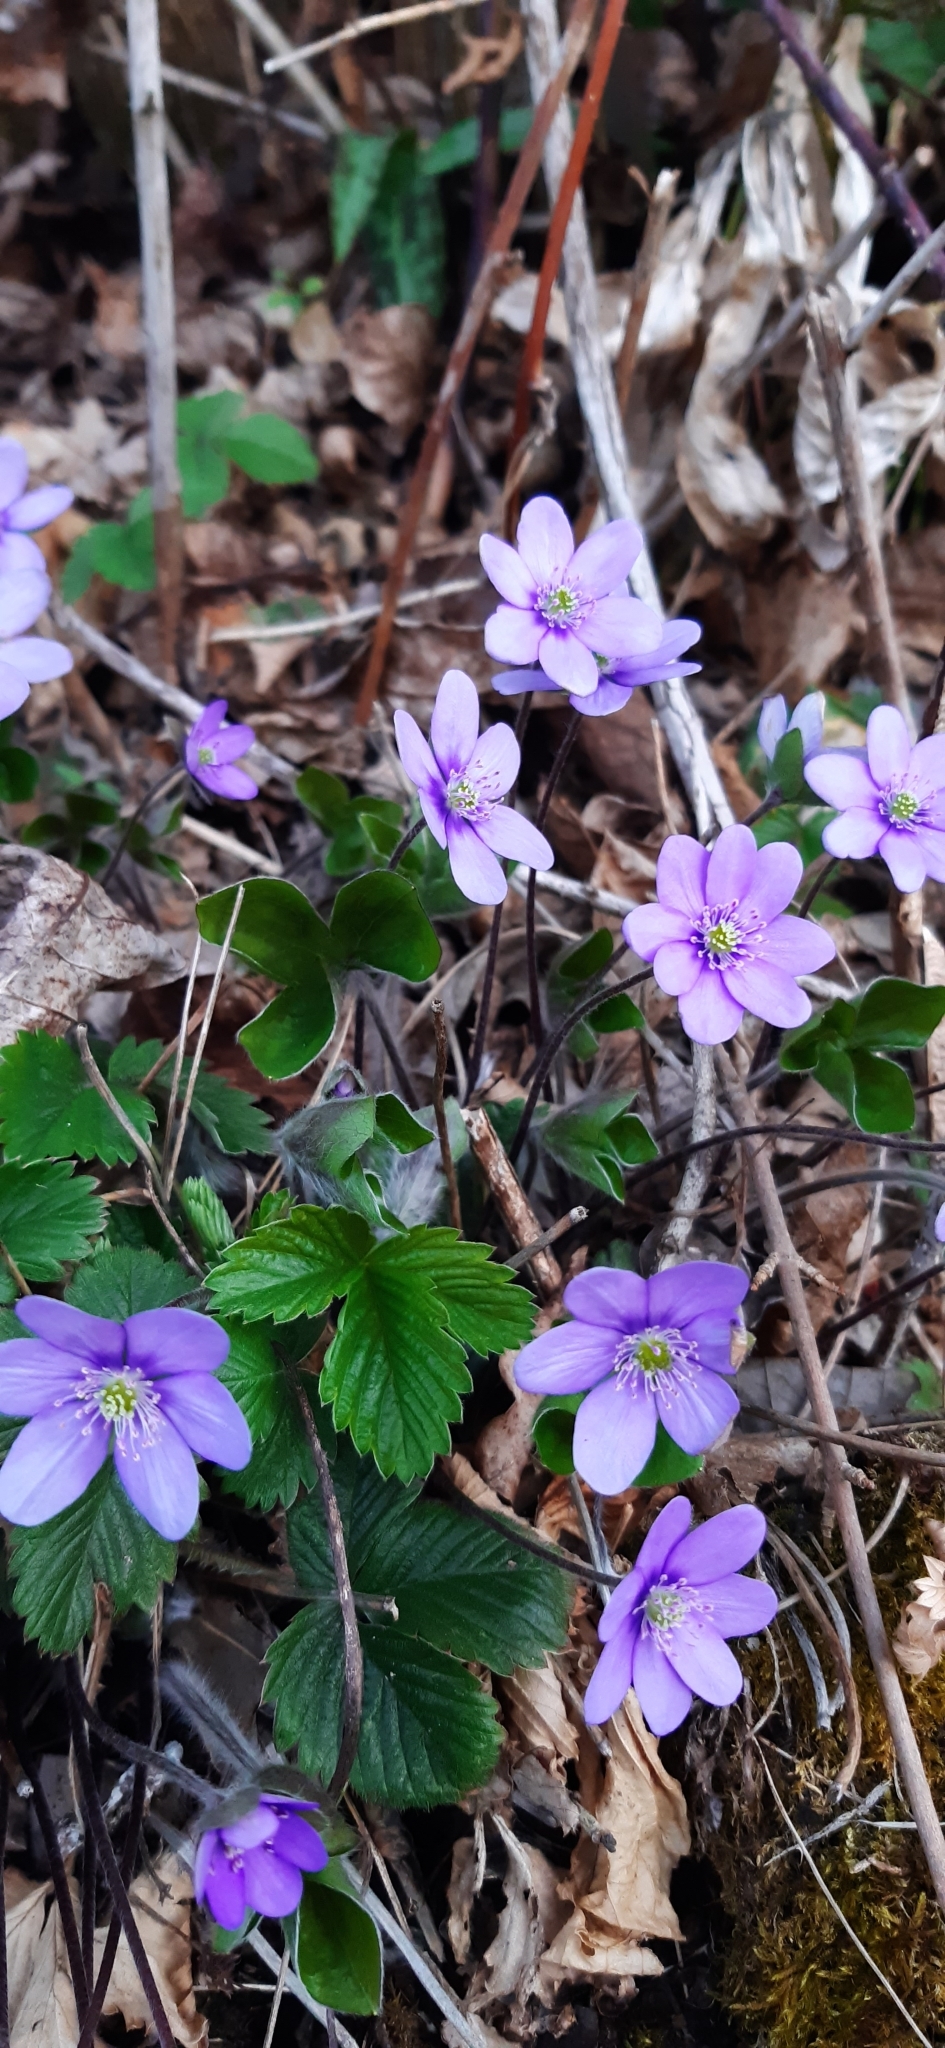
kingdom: Plantae
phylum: Tracheophyta
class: Magnoliopsida
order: Ranunculales
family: Ranunculaceae
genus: Hepatica
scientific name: Hepatica nobilis
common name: Liverleaf
